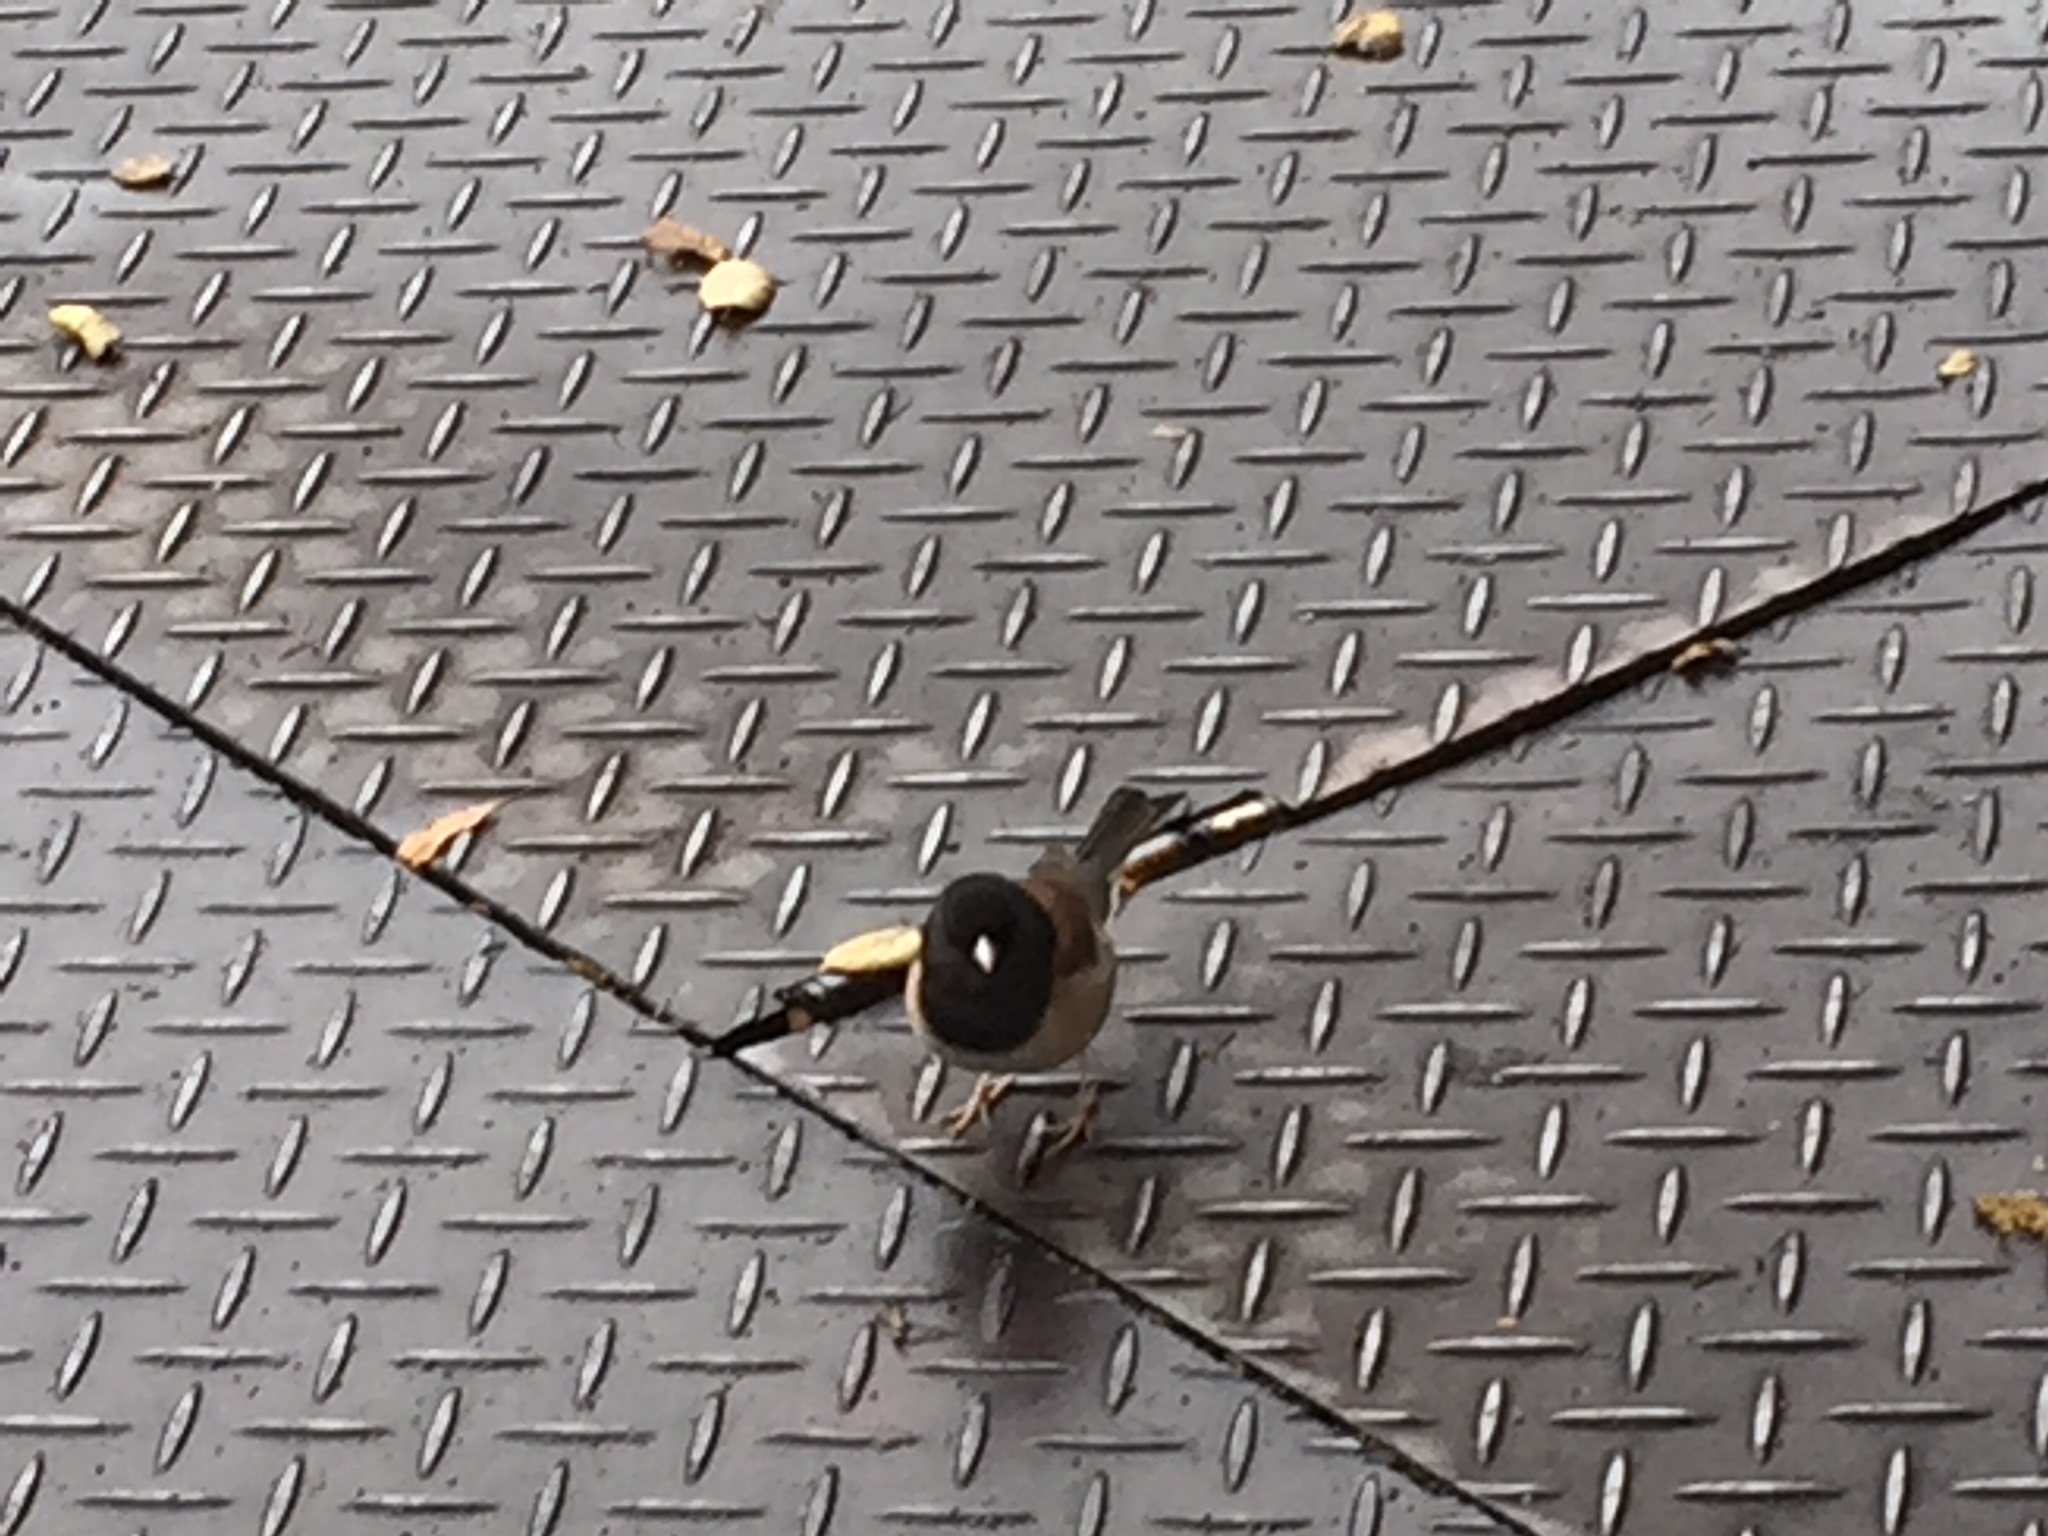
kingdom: Animalia
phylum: Chordata
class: Aves
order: Passeriformes
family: Passerellidae
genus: Junco
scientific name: Junco hyemalis
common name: Dark-eyed junco
